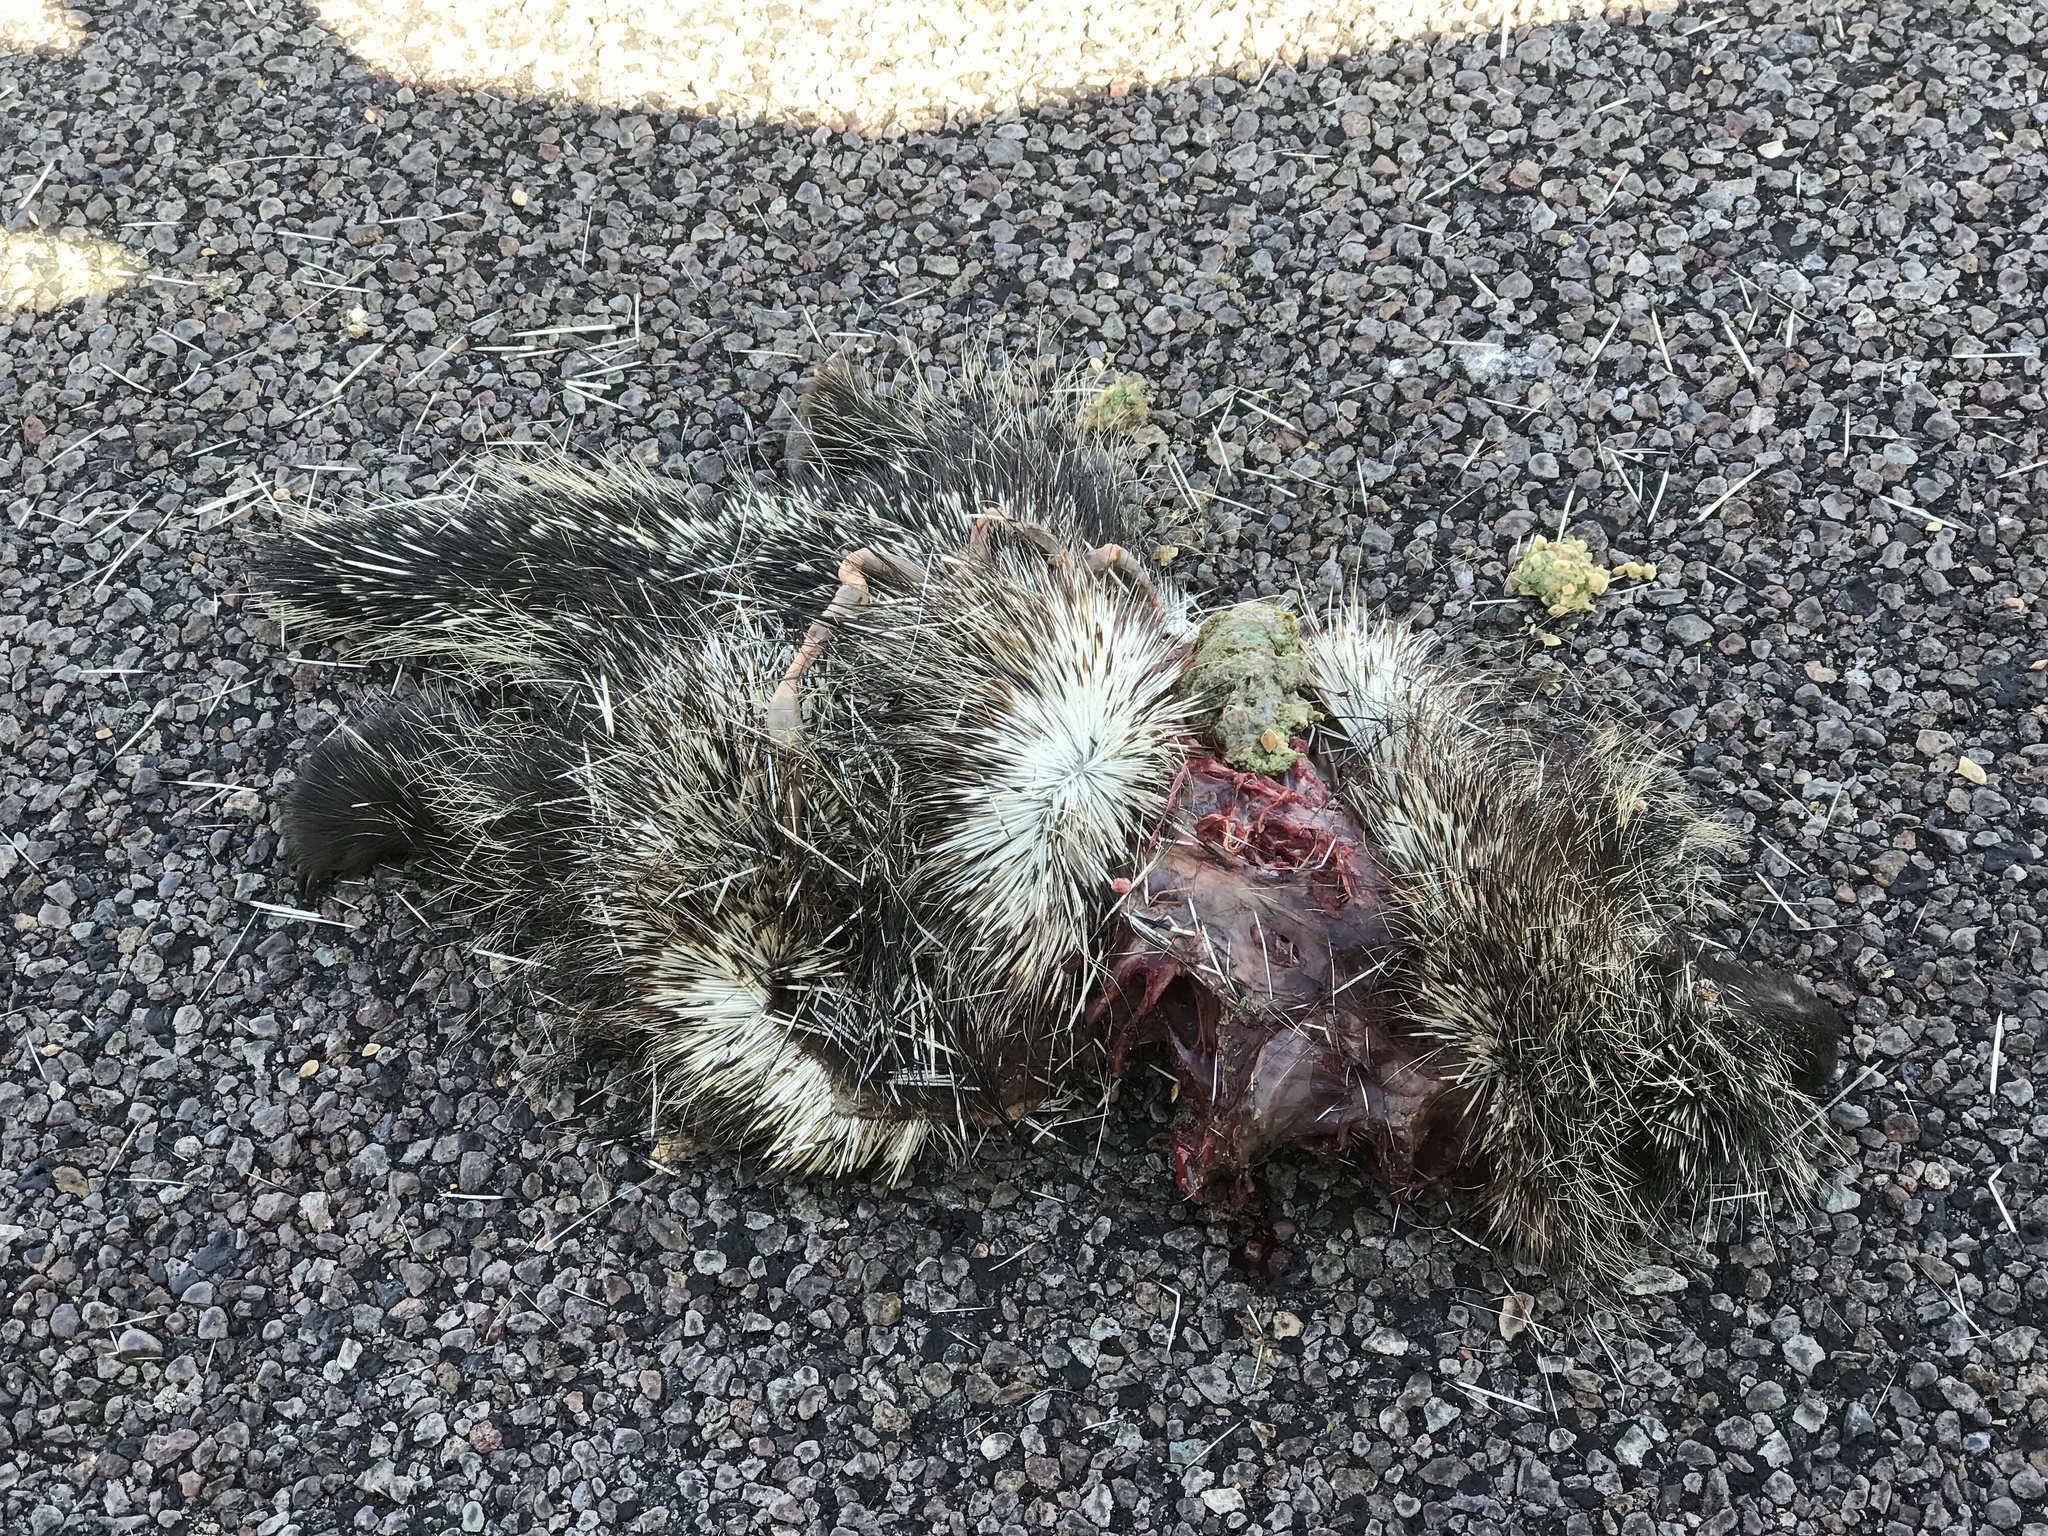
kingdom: Animalia
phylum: Chordata
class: Mammalia
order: Rodentia
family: Erethizontidae
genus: Erethizon
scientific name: Erethizon dorsatus
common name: North american porcupine
